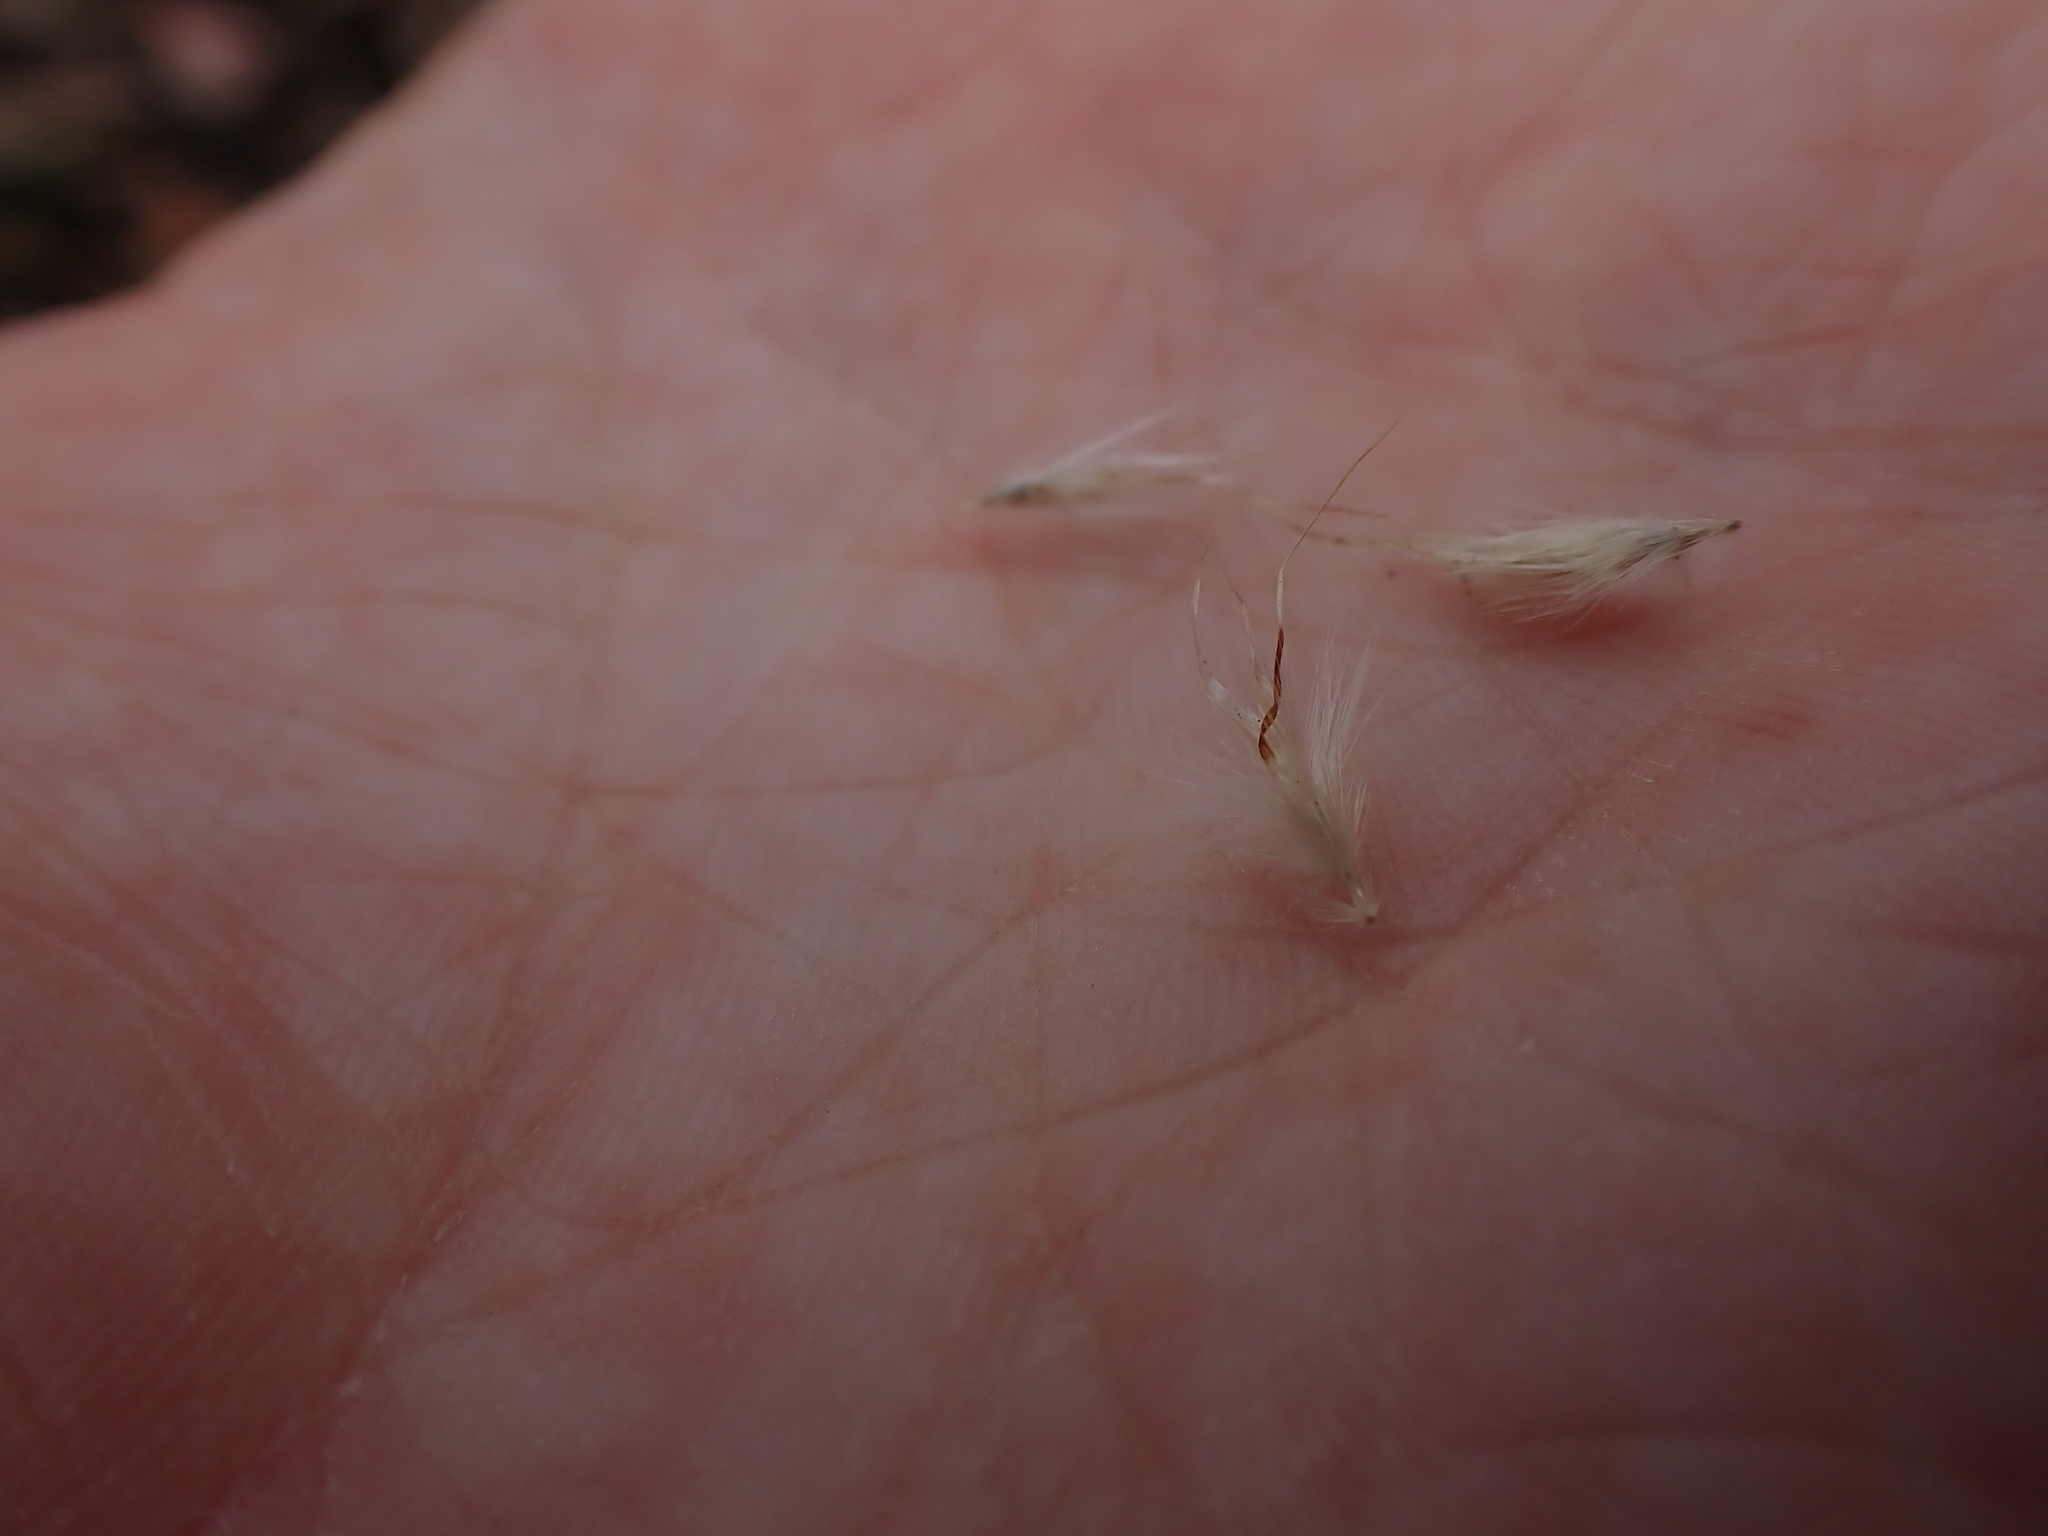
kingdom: Plantae
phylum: Tracheophyta
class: Liliopsida
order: Poales
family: Poaceae
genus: Rytidosperma
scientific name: Rytidosperma fulvum
